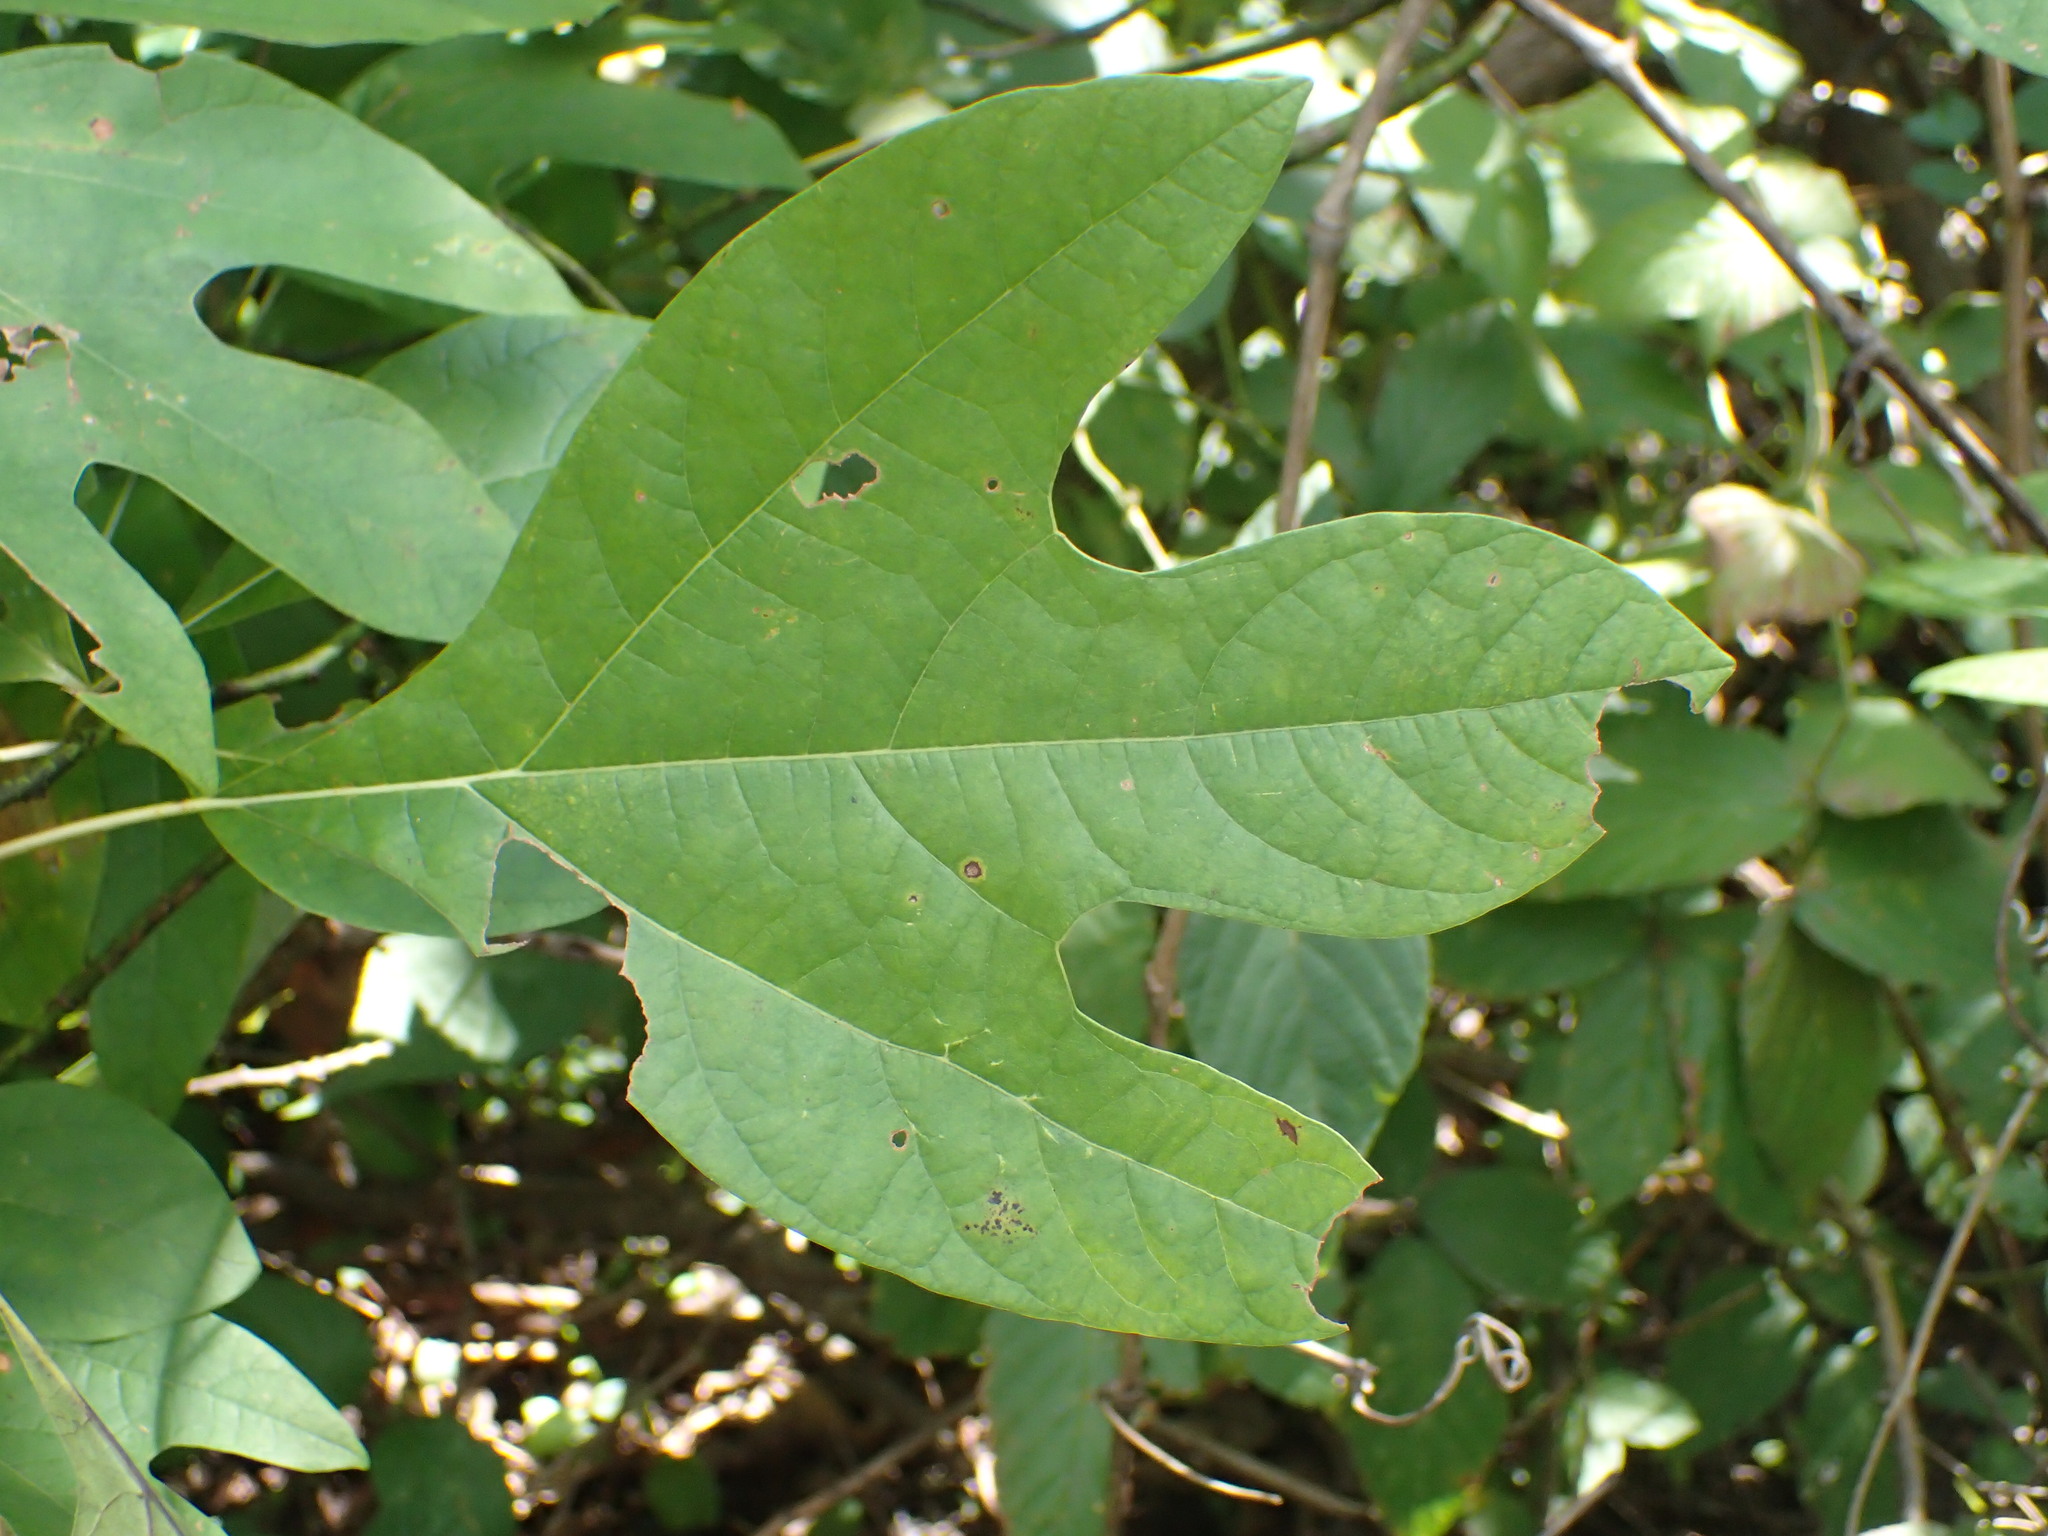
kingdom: Plantae
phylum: Tracheophyta
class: Magnoliopsida
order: Laurales
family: Lauraceae
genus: Sassafras
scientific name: Sassafras albidum
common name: Sassafras
